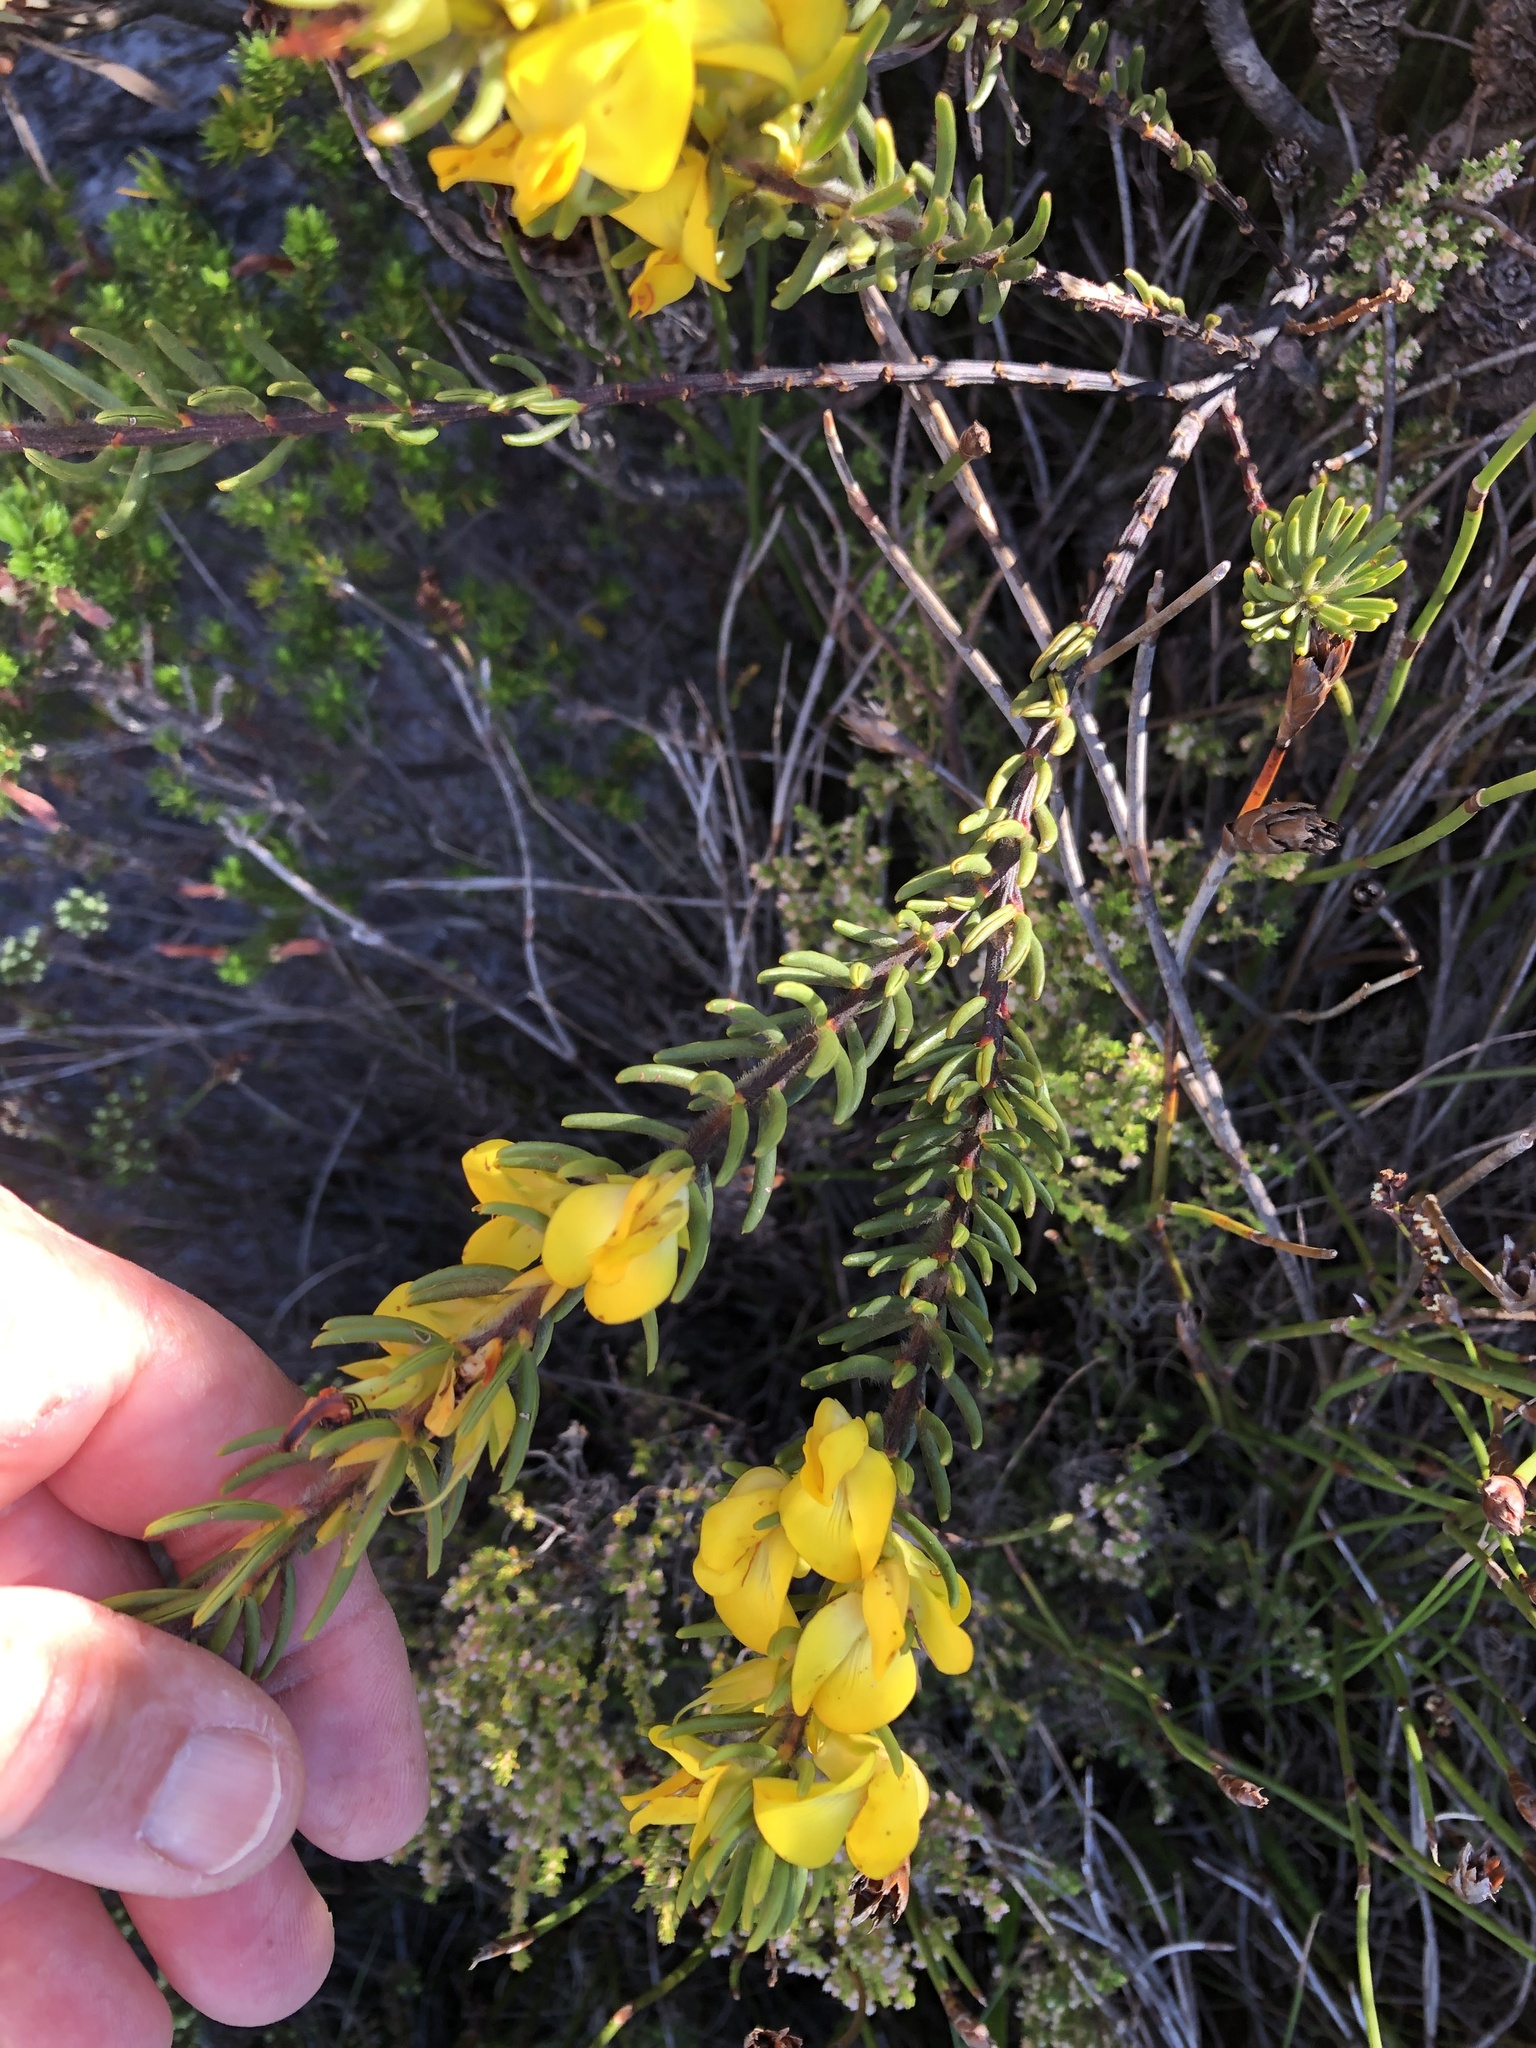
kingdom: Plantae
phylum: Tracheophyta
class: Magnoliopsida
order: Fabales
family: Fabaceae
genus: Cyclopia
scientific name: Cyclopia galioides
